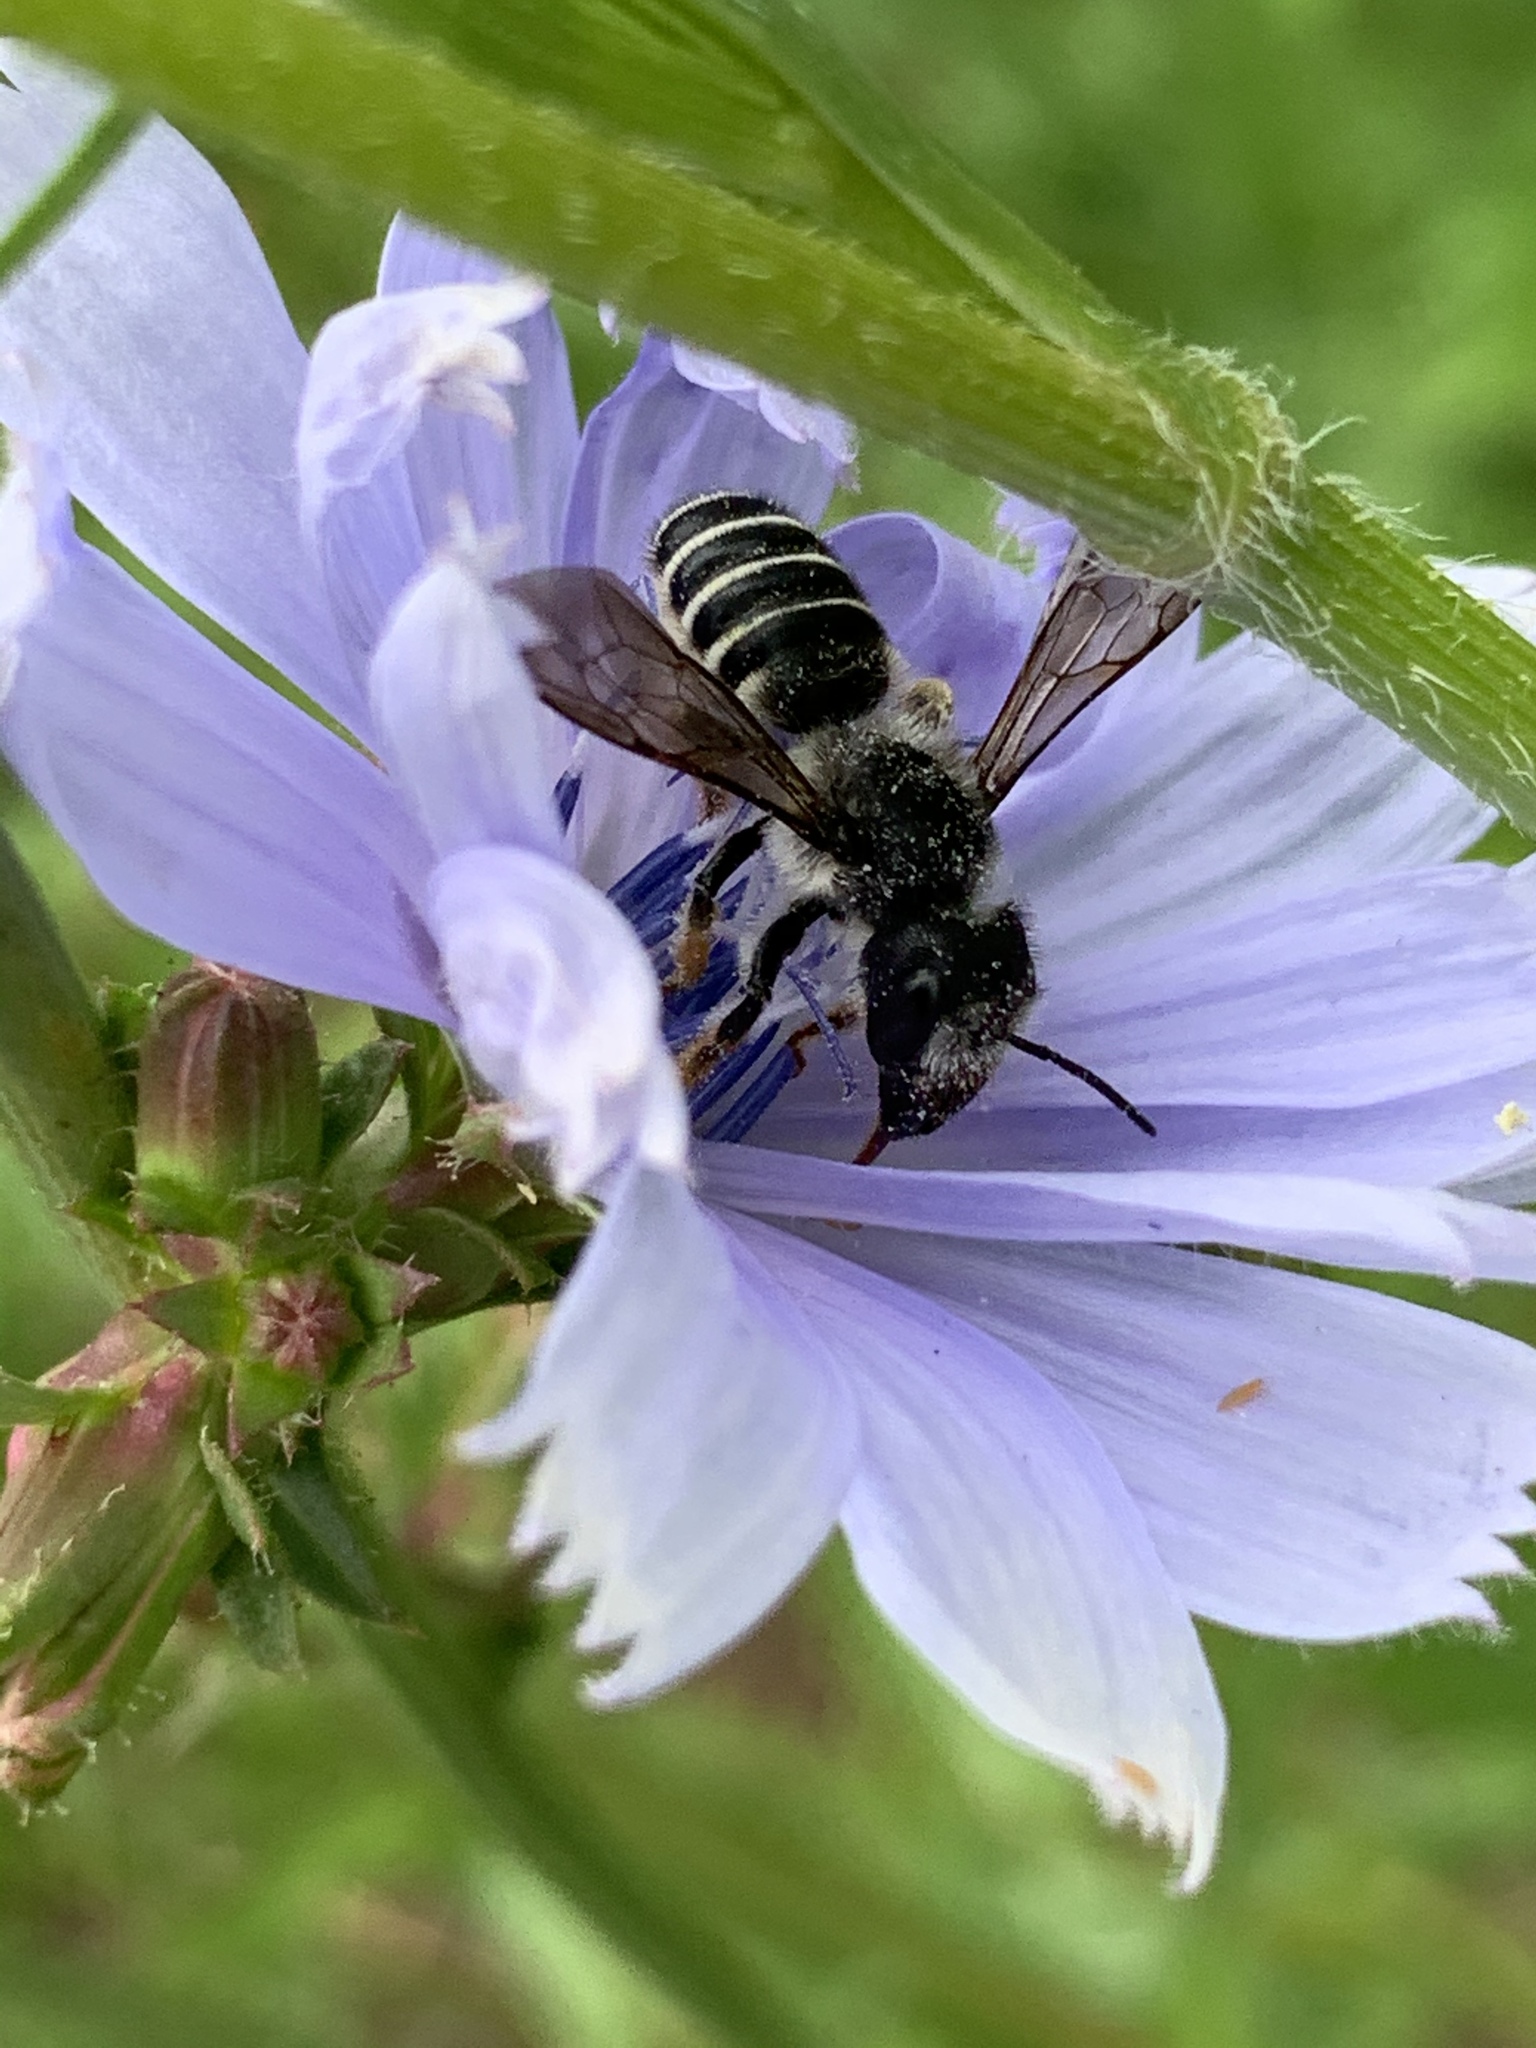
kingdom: Animalia
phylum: Arthropoda
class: Insecta
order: Hymenoptera
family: Megachilidae
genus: Megachile
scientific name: Megachile pugnata
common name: Pugnacious leafcutter bee
